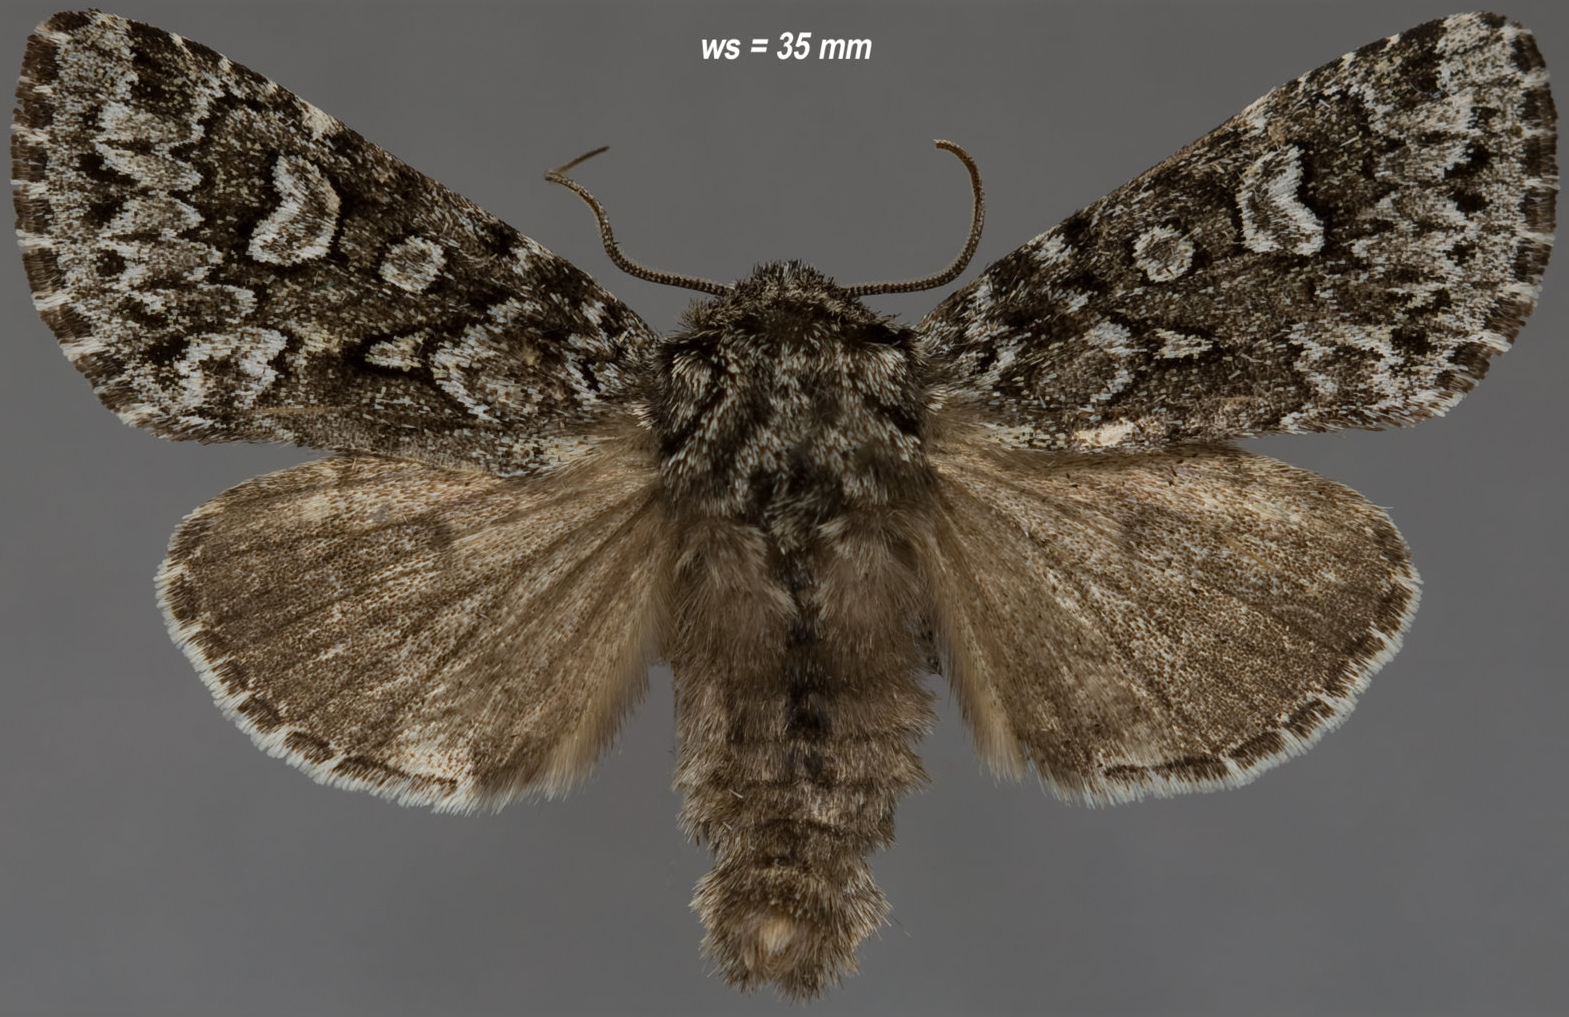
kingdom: Animalia
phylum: Arthropoda
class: Insecta
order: Lepidoptera
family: Noctuidae
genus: Lasionycta
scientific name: Lasionycta taigata
